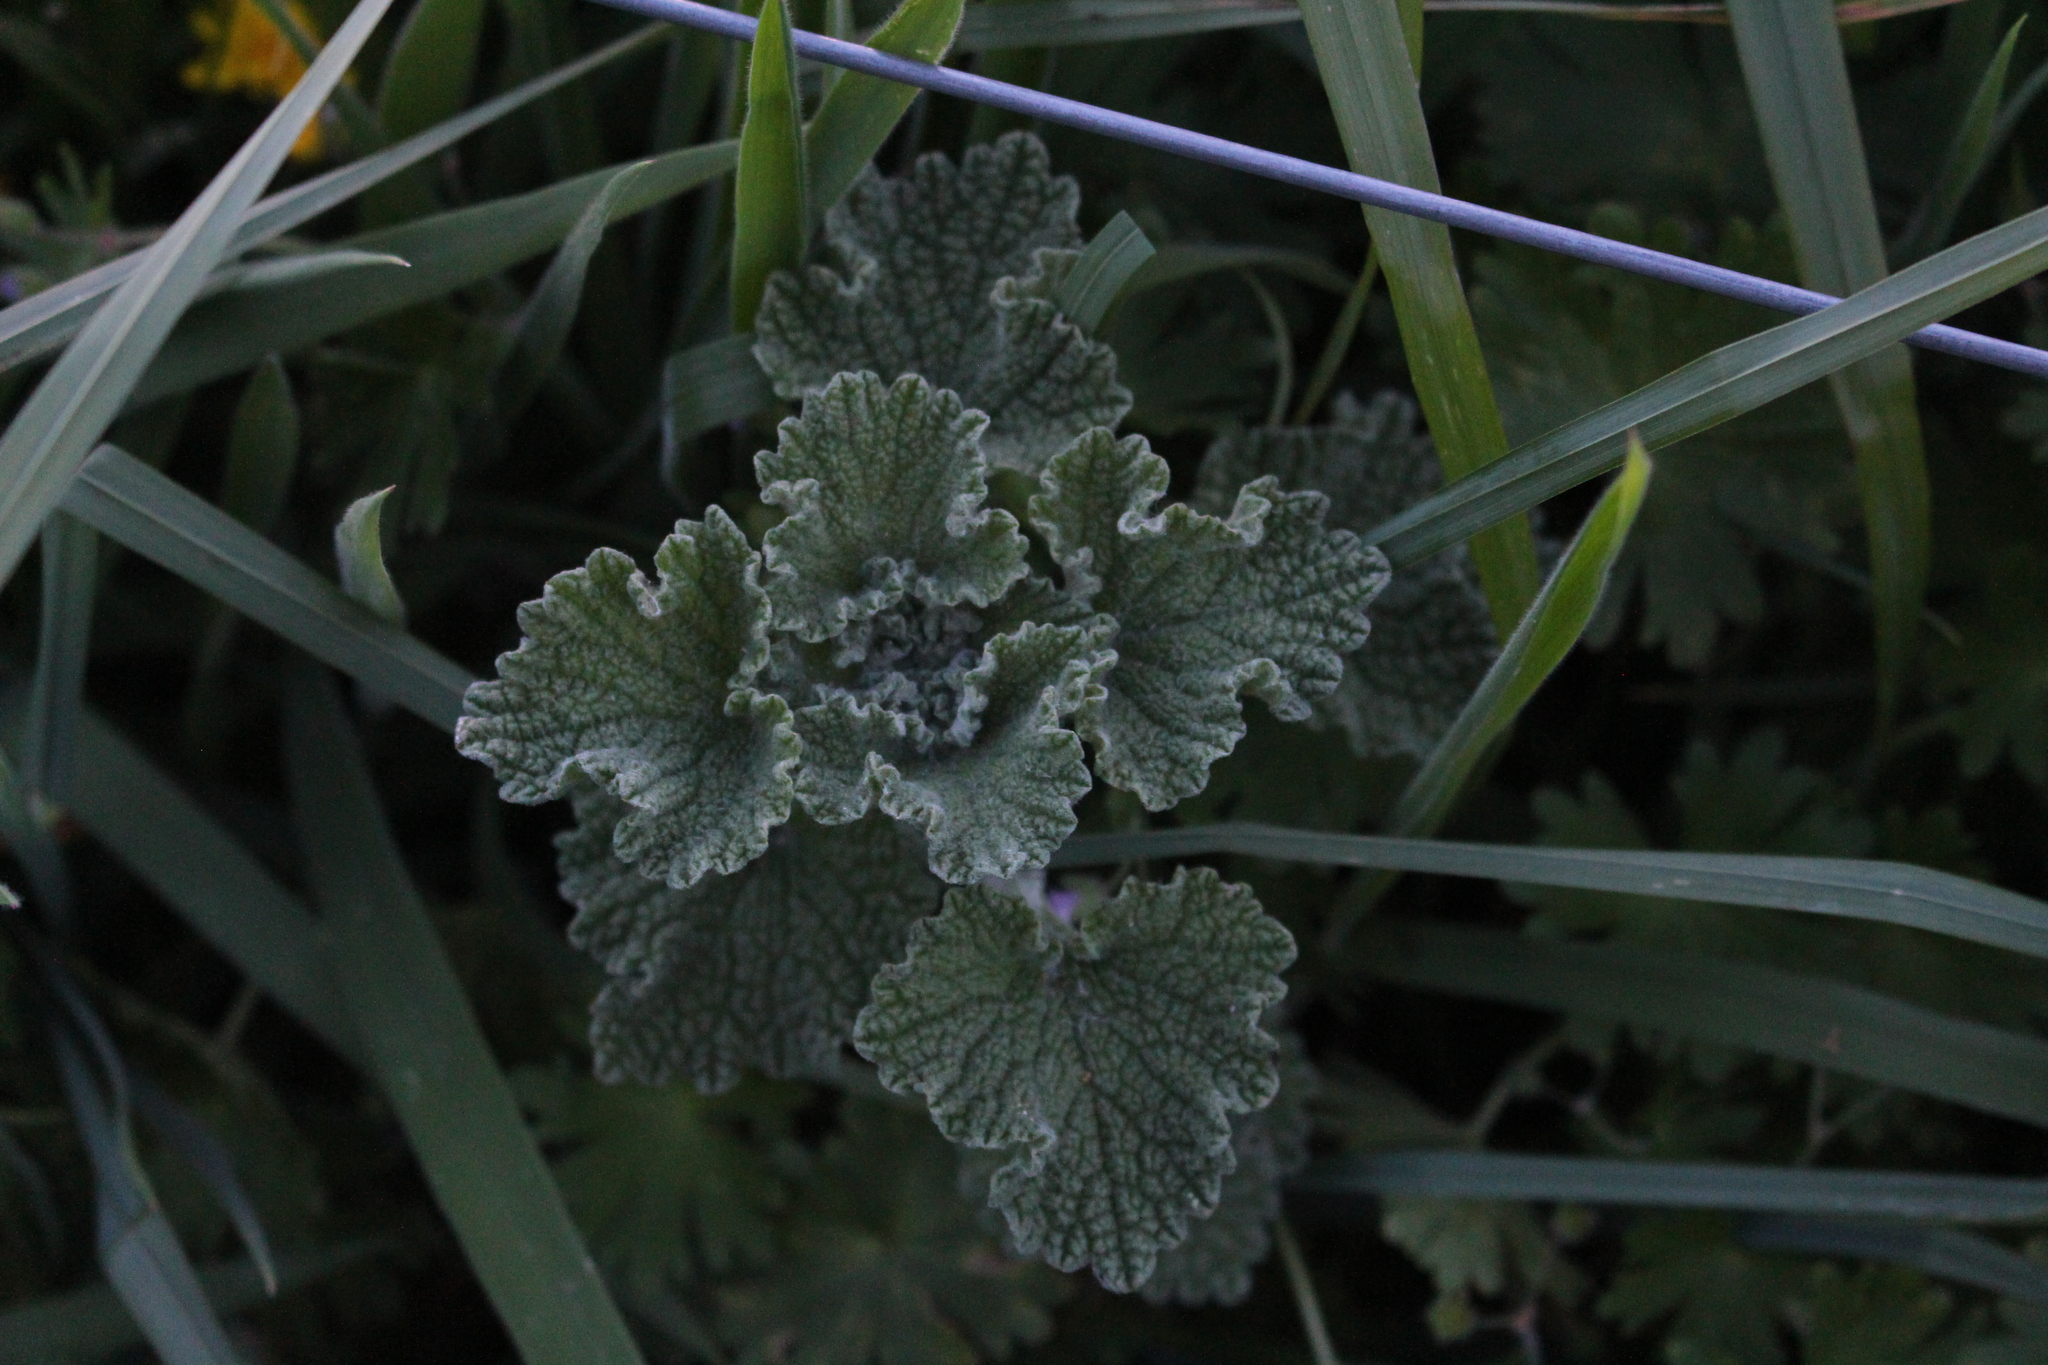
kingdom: Plantae
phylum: Tracheophyta
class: Magnoliopsida
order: Lamiales
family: Lamiaceae
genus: Marrubium
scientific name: Marrubium vulgare
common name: Horehound
